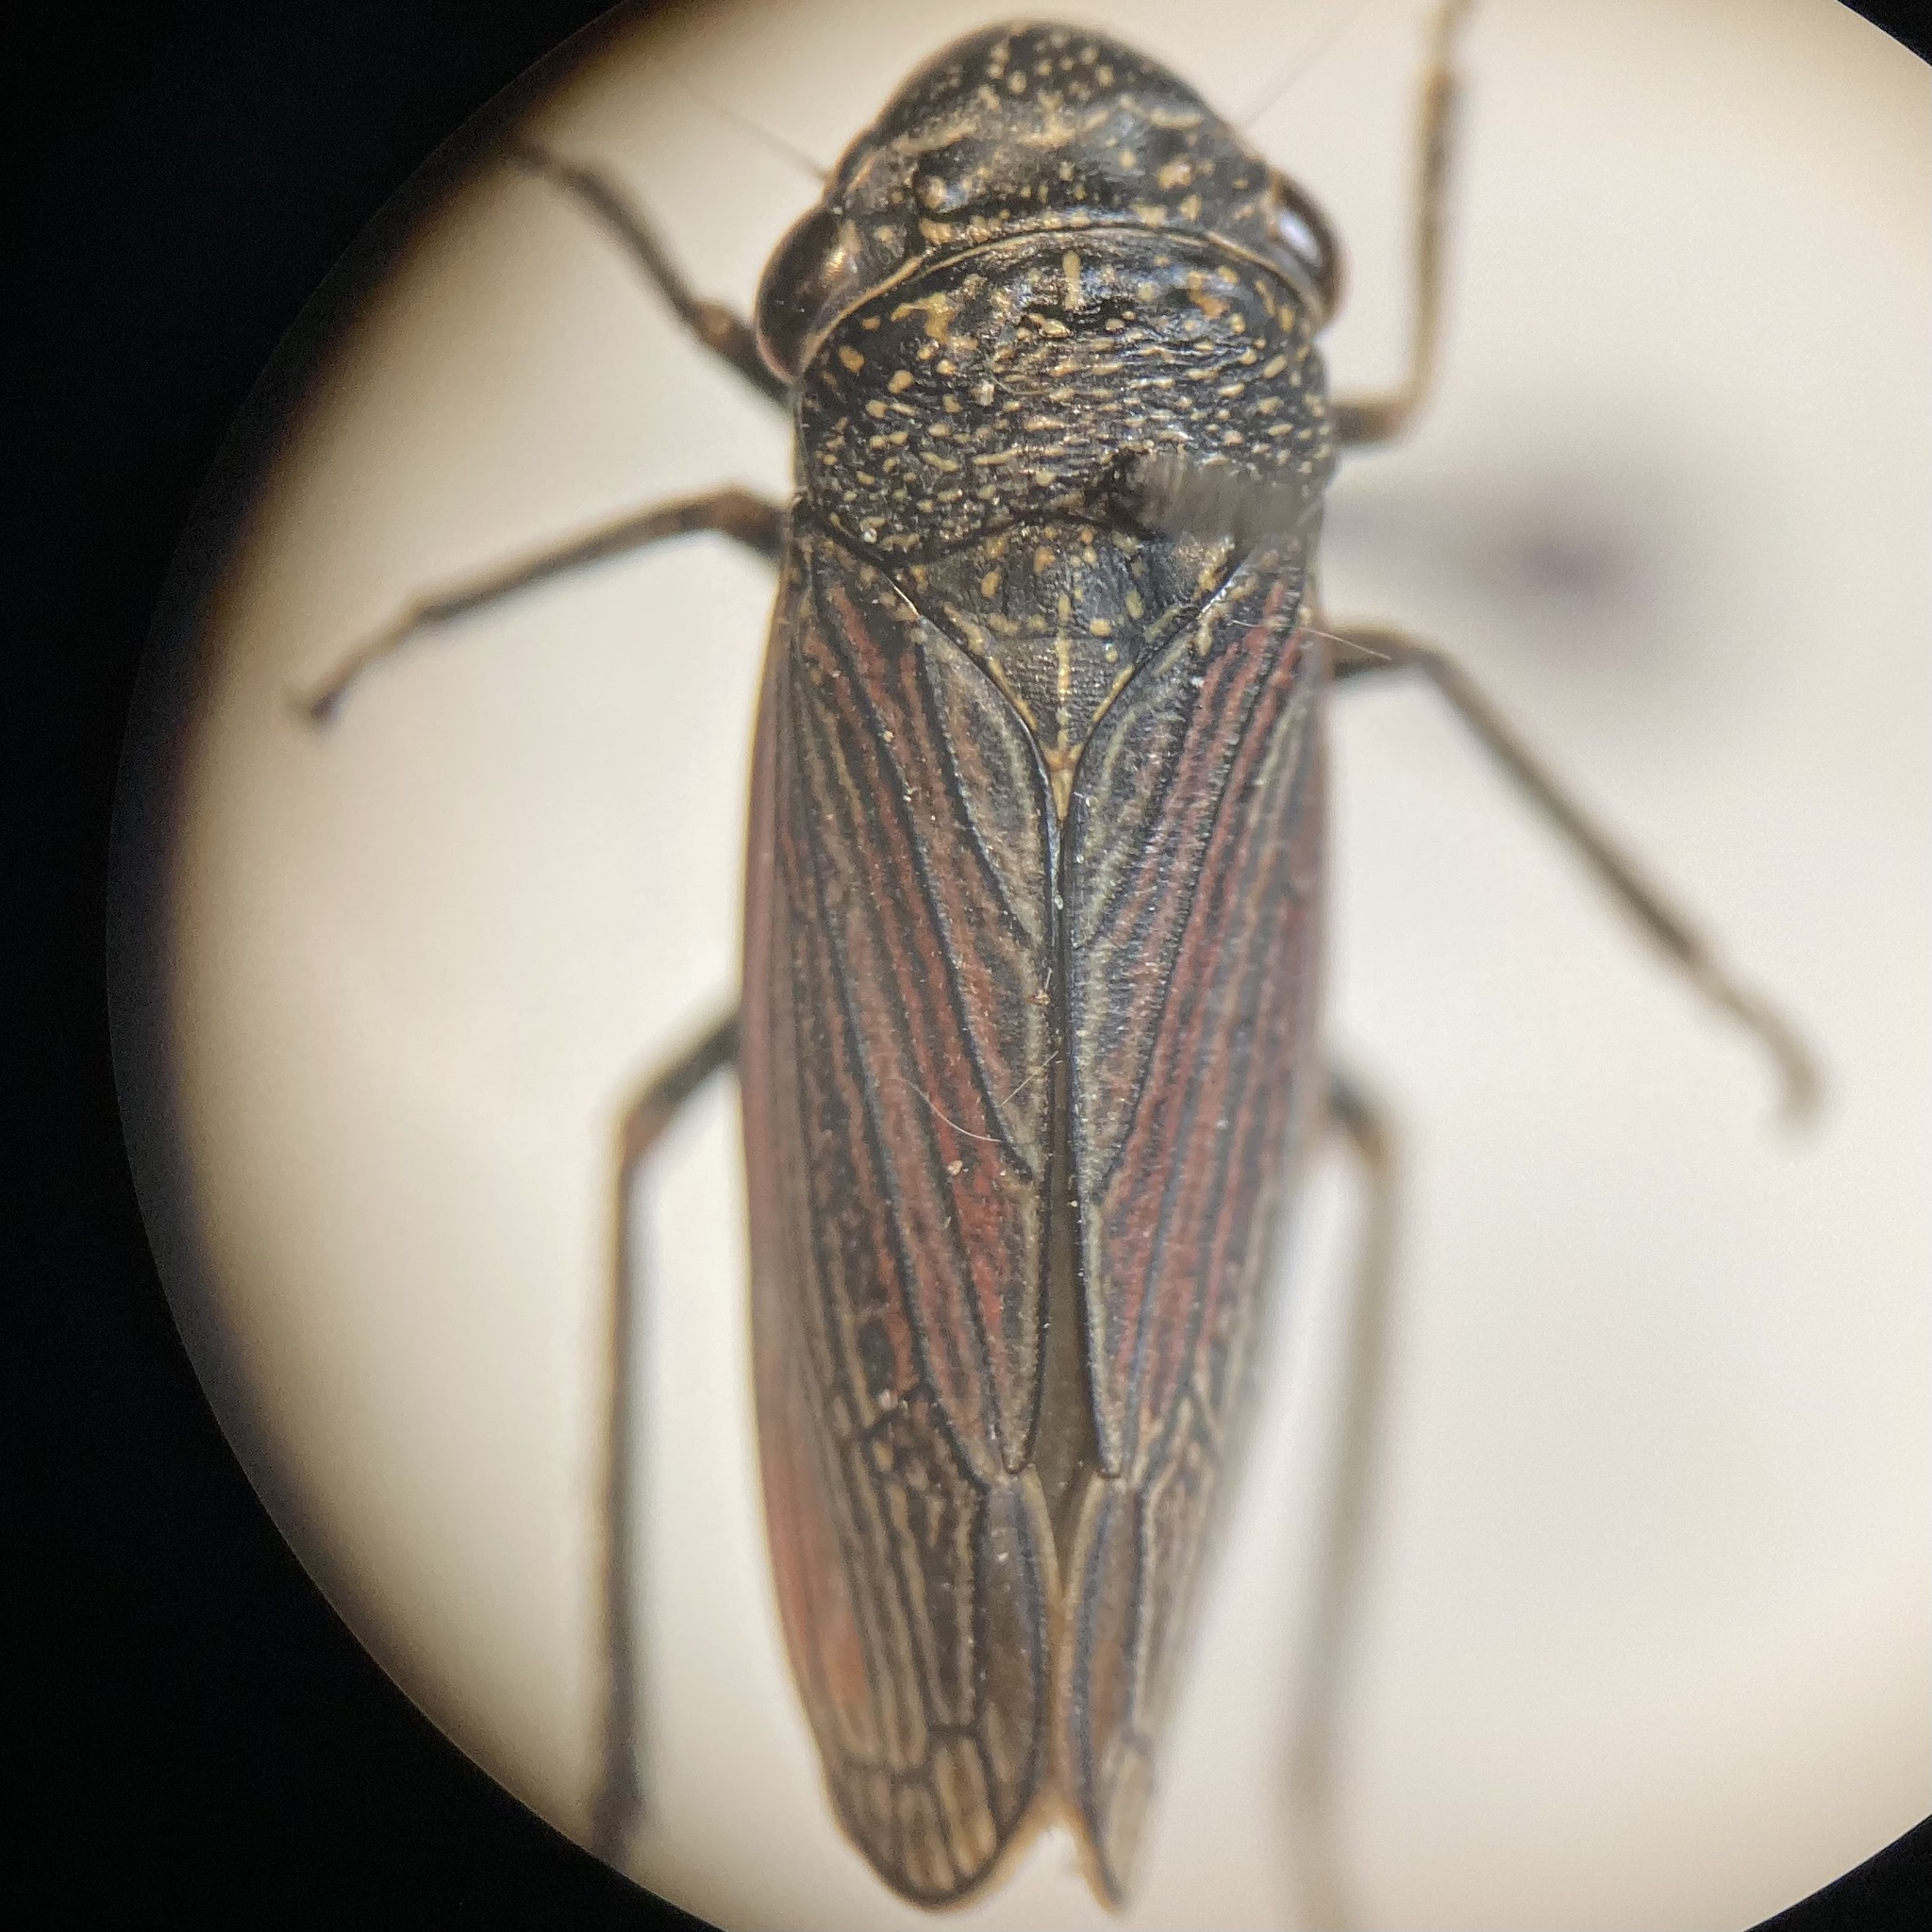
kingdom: Animalia
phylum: Arthropoda
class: Insecta
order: Hemiptera
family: Cicadellidae
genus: Cuerna
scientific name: Cuerna striata
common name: Striped leafhopper
